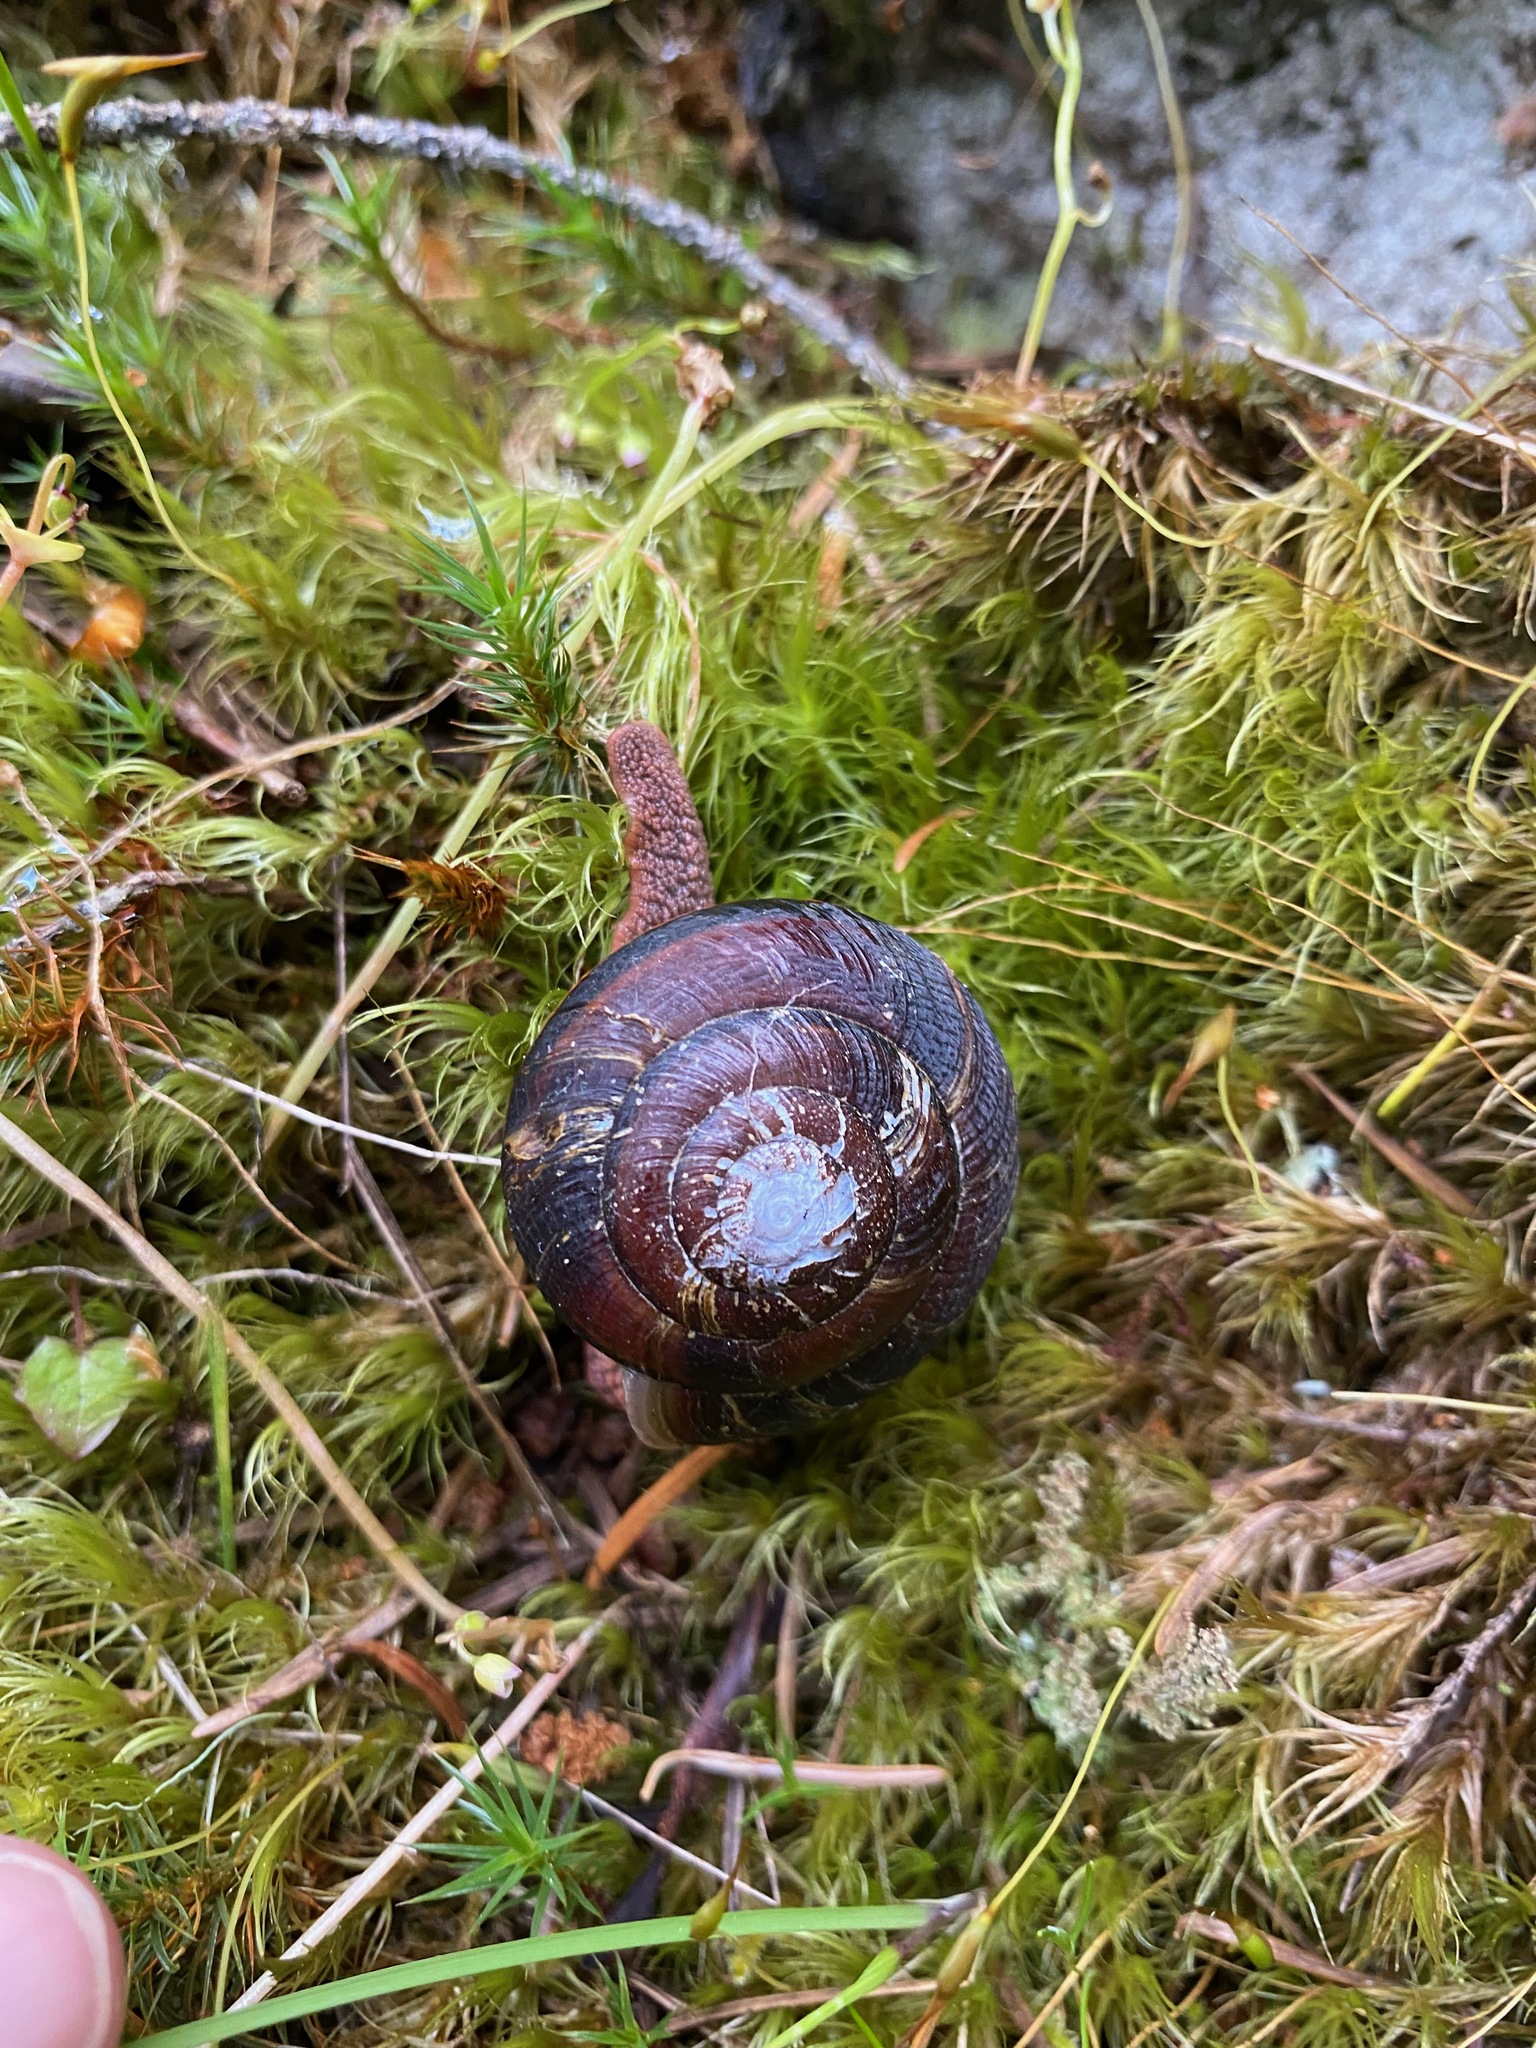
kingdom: Animalia
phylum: Mollusca
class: Gastropoda
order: Stylommatophora
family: Xanthonychidae
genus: Monadenia
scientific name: Monadenia fidelis
